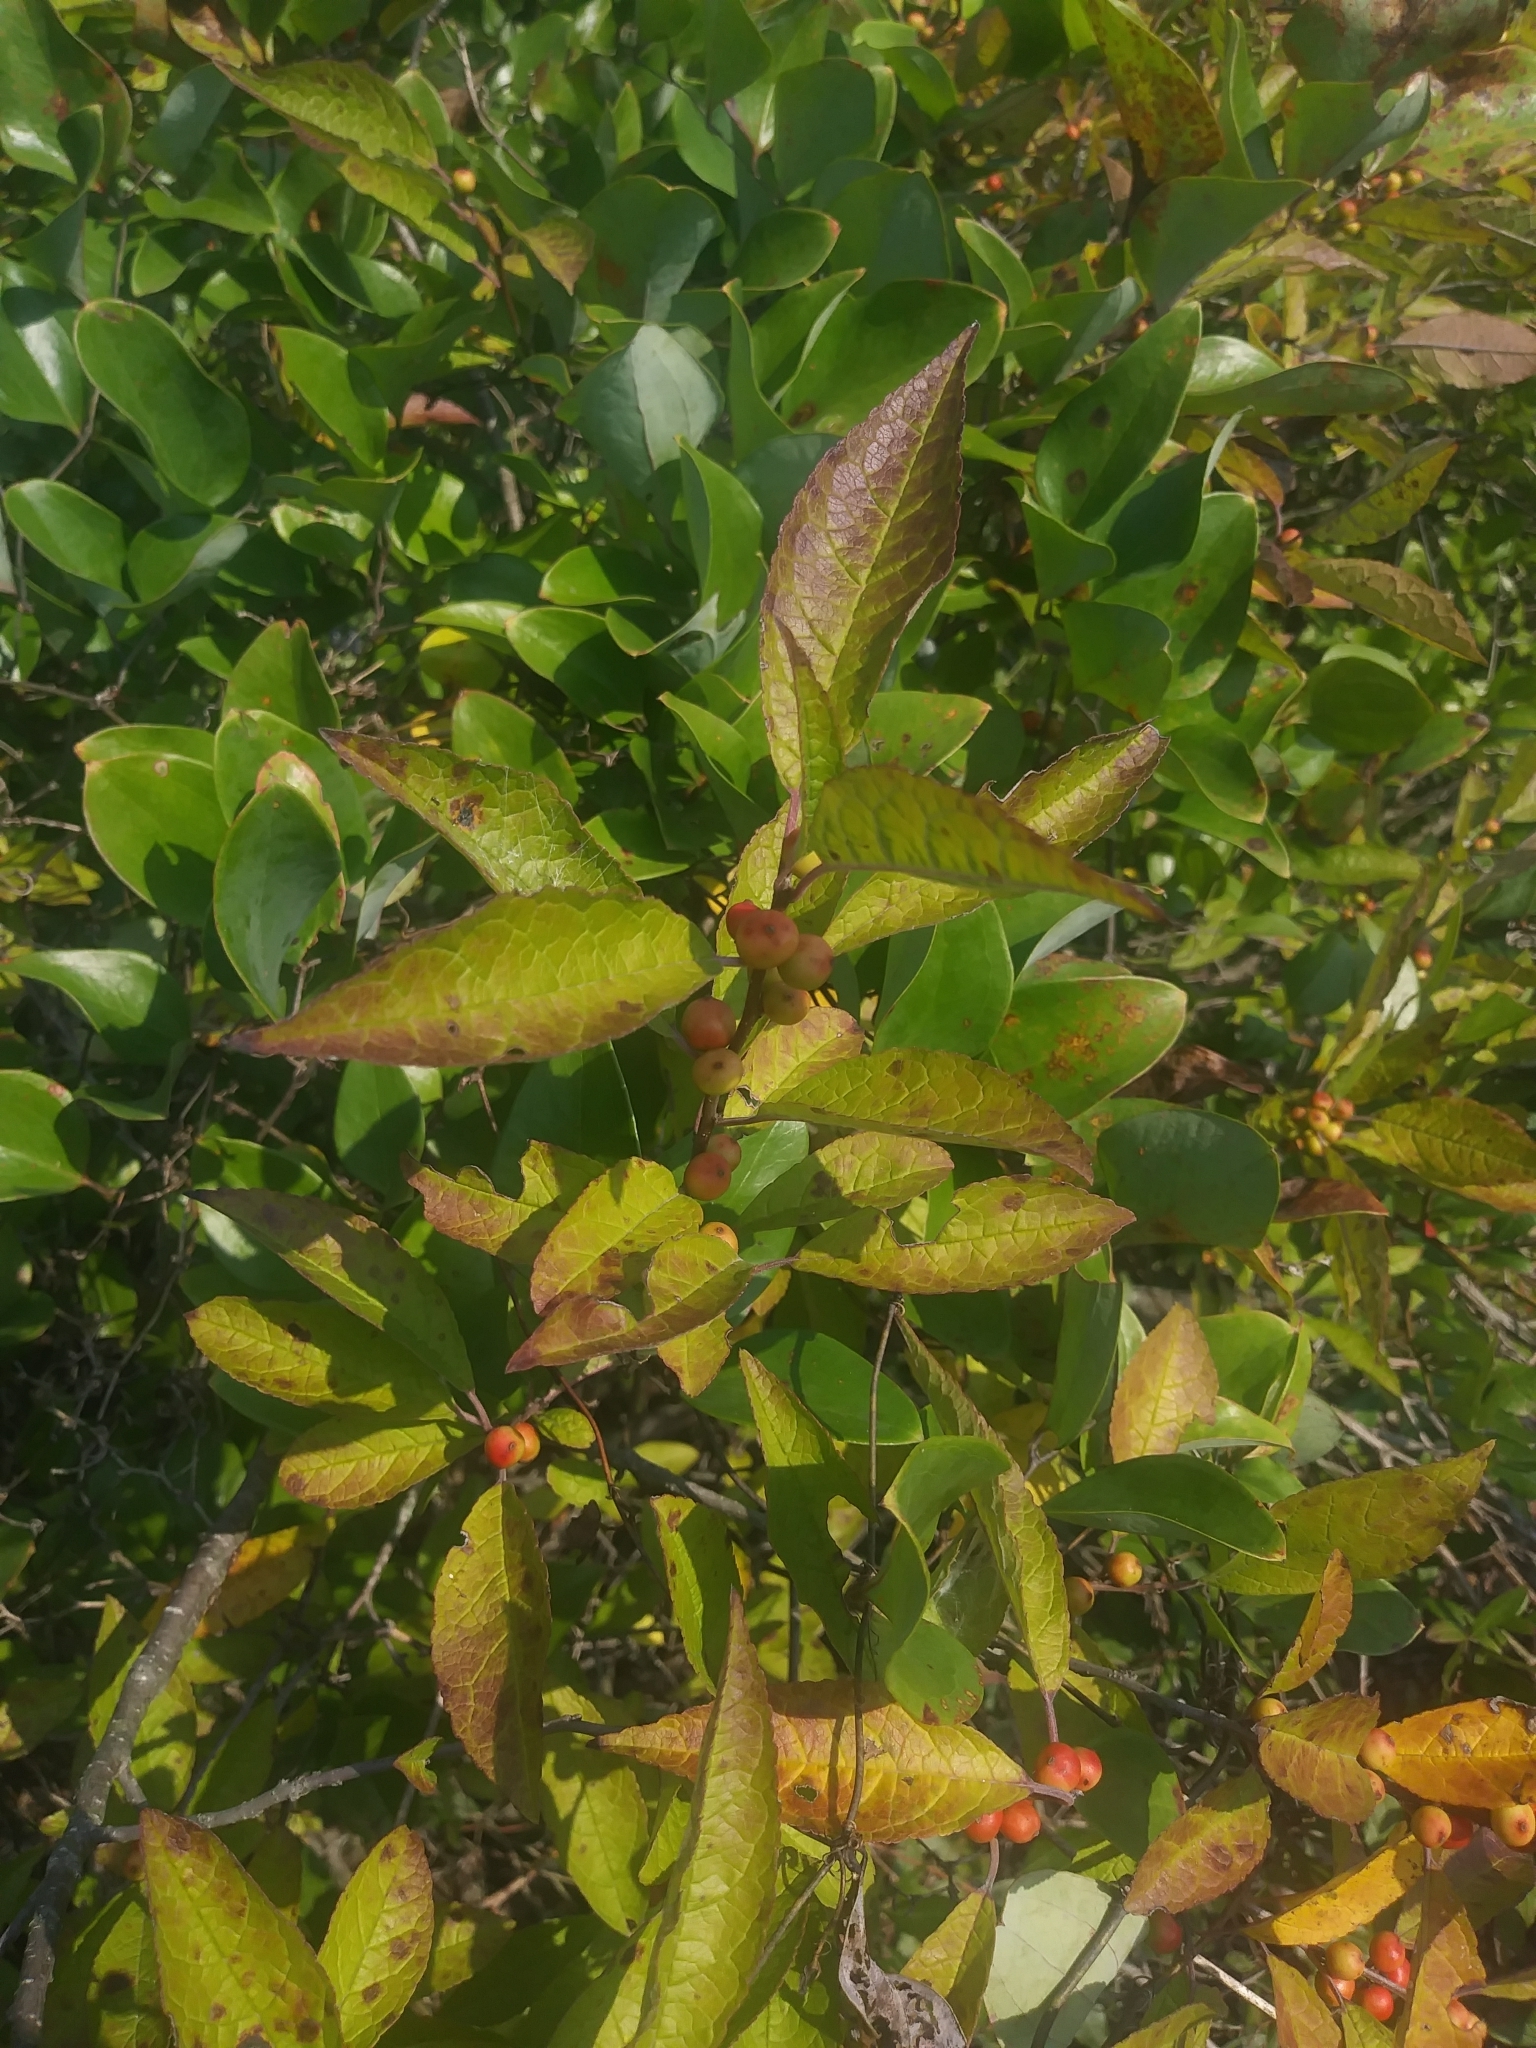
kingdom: Plantae
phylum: Tracheophyta
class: Magnoliopsida
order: Aquifoliales
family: Aquifoliaceae
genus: Ilex
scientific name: Ilex verticillata
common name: Virginia winterberry
